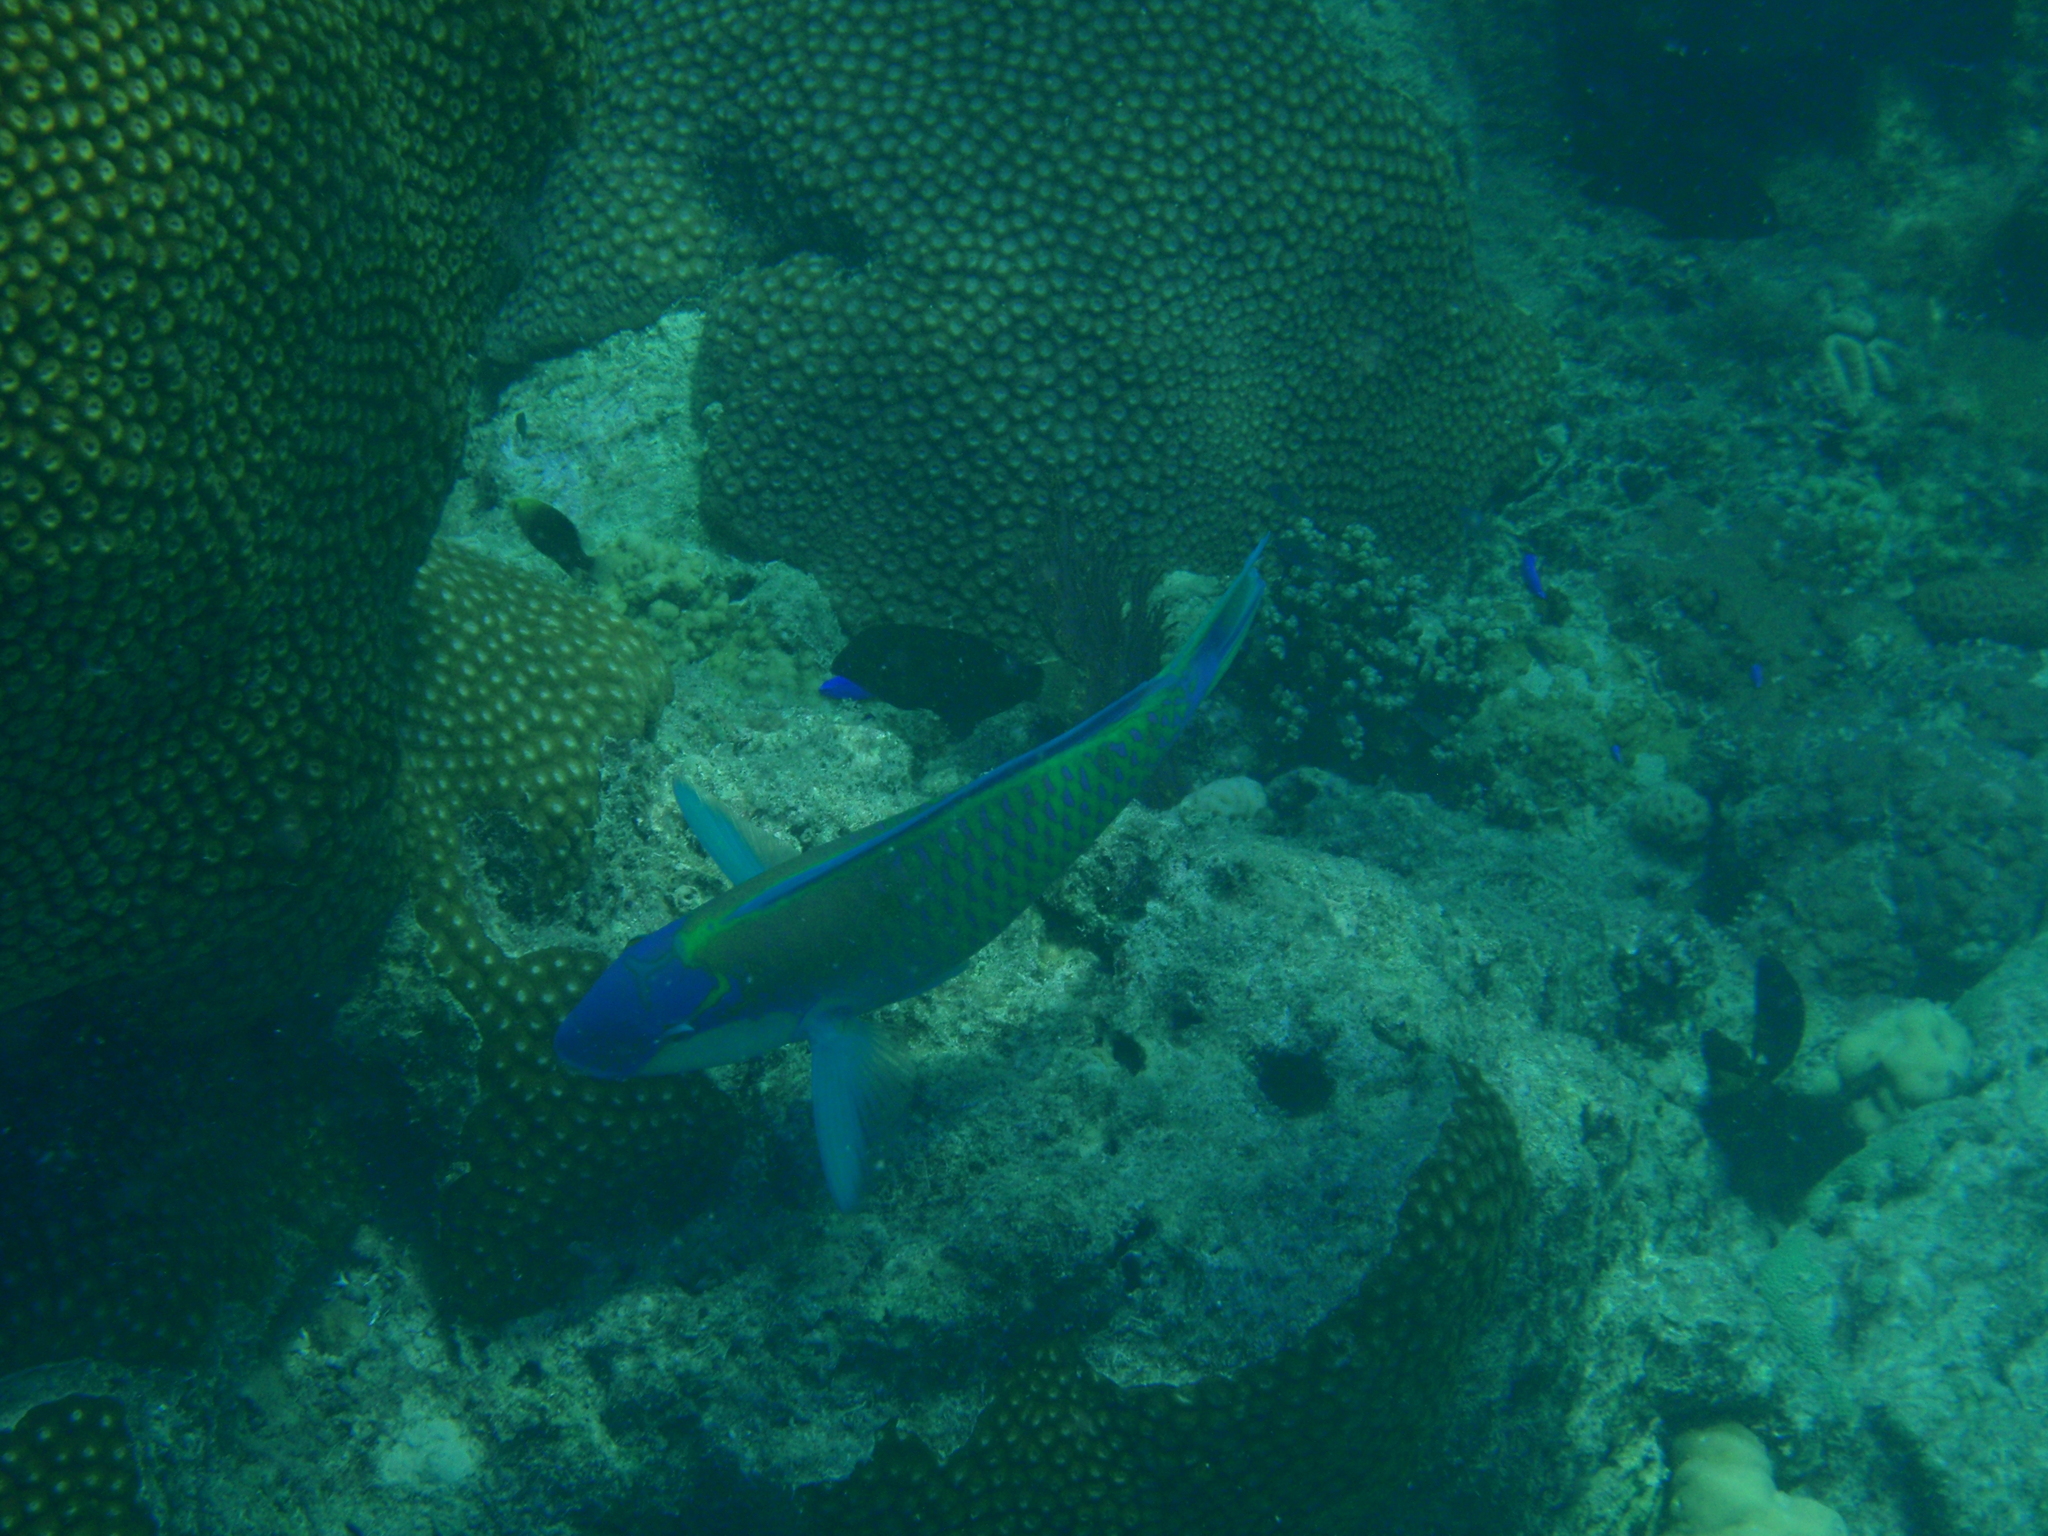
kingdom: Animalia
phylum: Chordata
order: Perciformes
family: Scaridae
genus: Chlorurus
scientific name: Chlorurus bleekeri
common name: Bleeker's parrotfish
